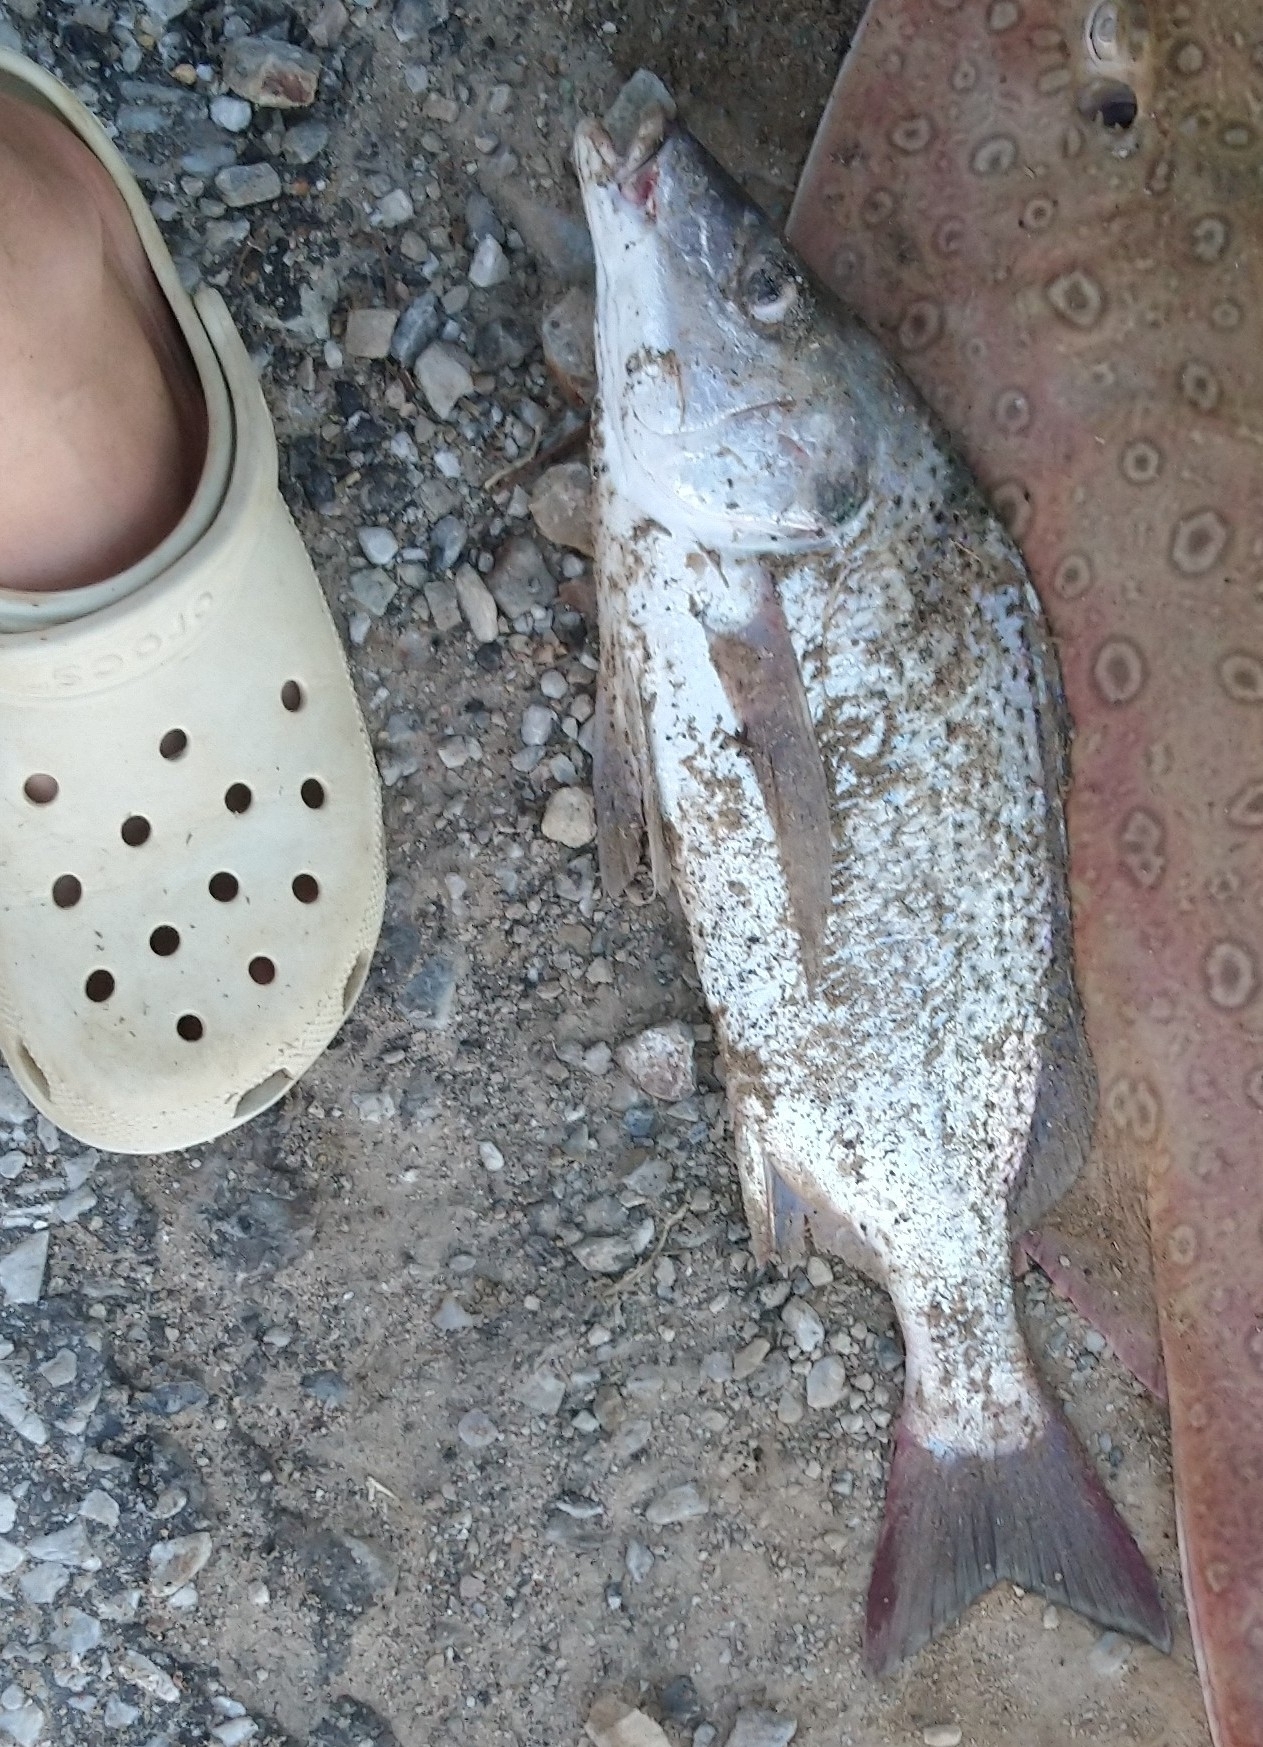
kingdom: Animalia
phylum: Chordata
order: Perciformes
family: Haemulidae
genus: Pomadasys
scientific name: Pomadasys commersonnii
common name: Smallspotted grunter
